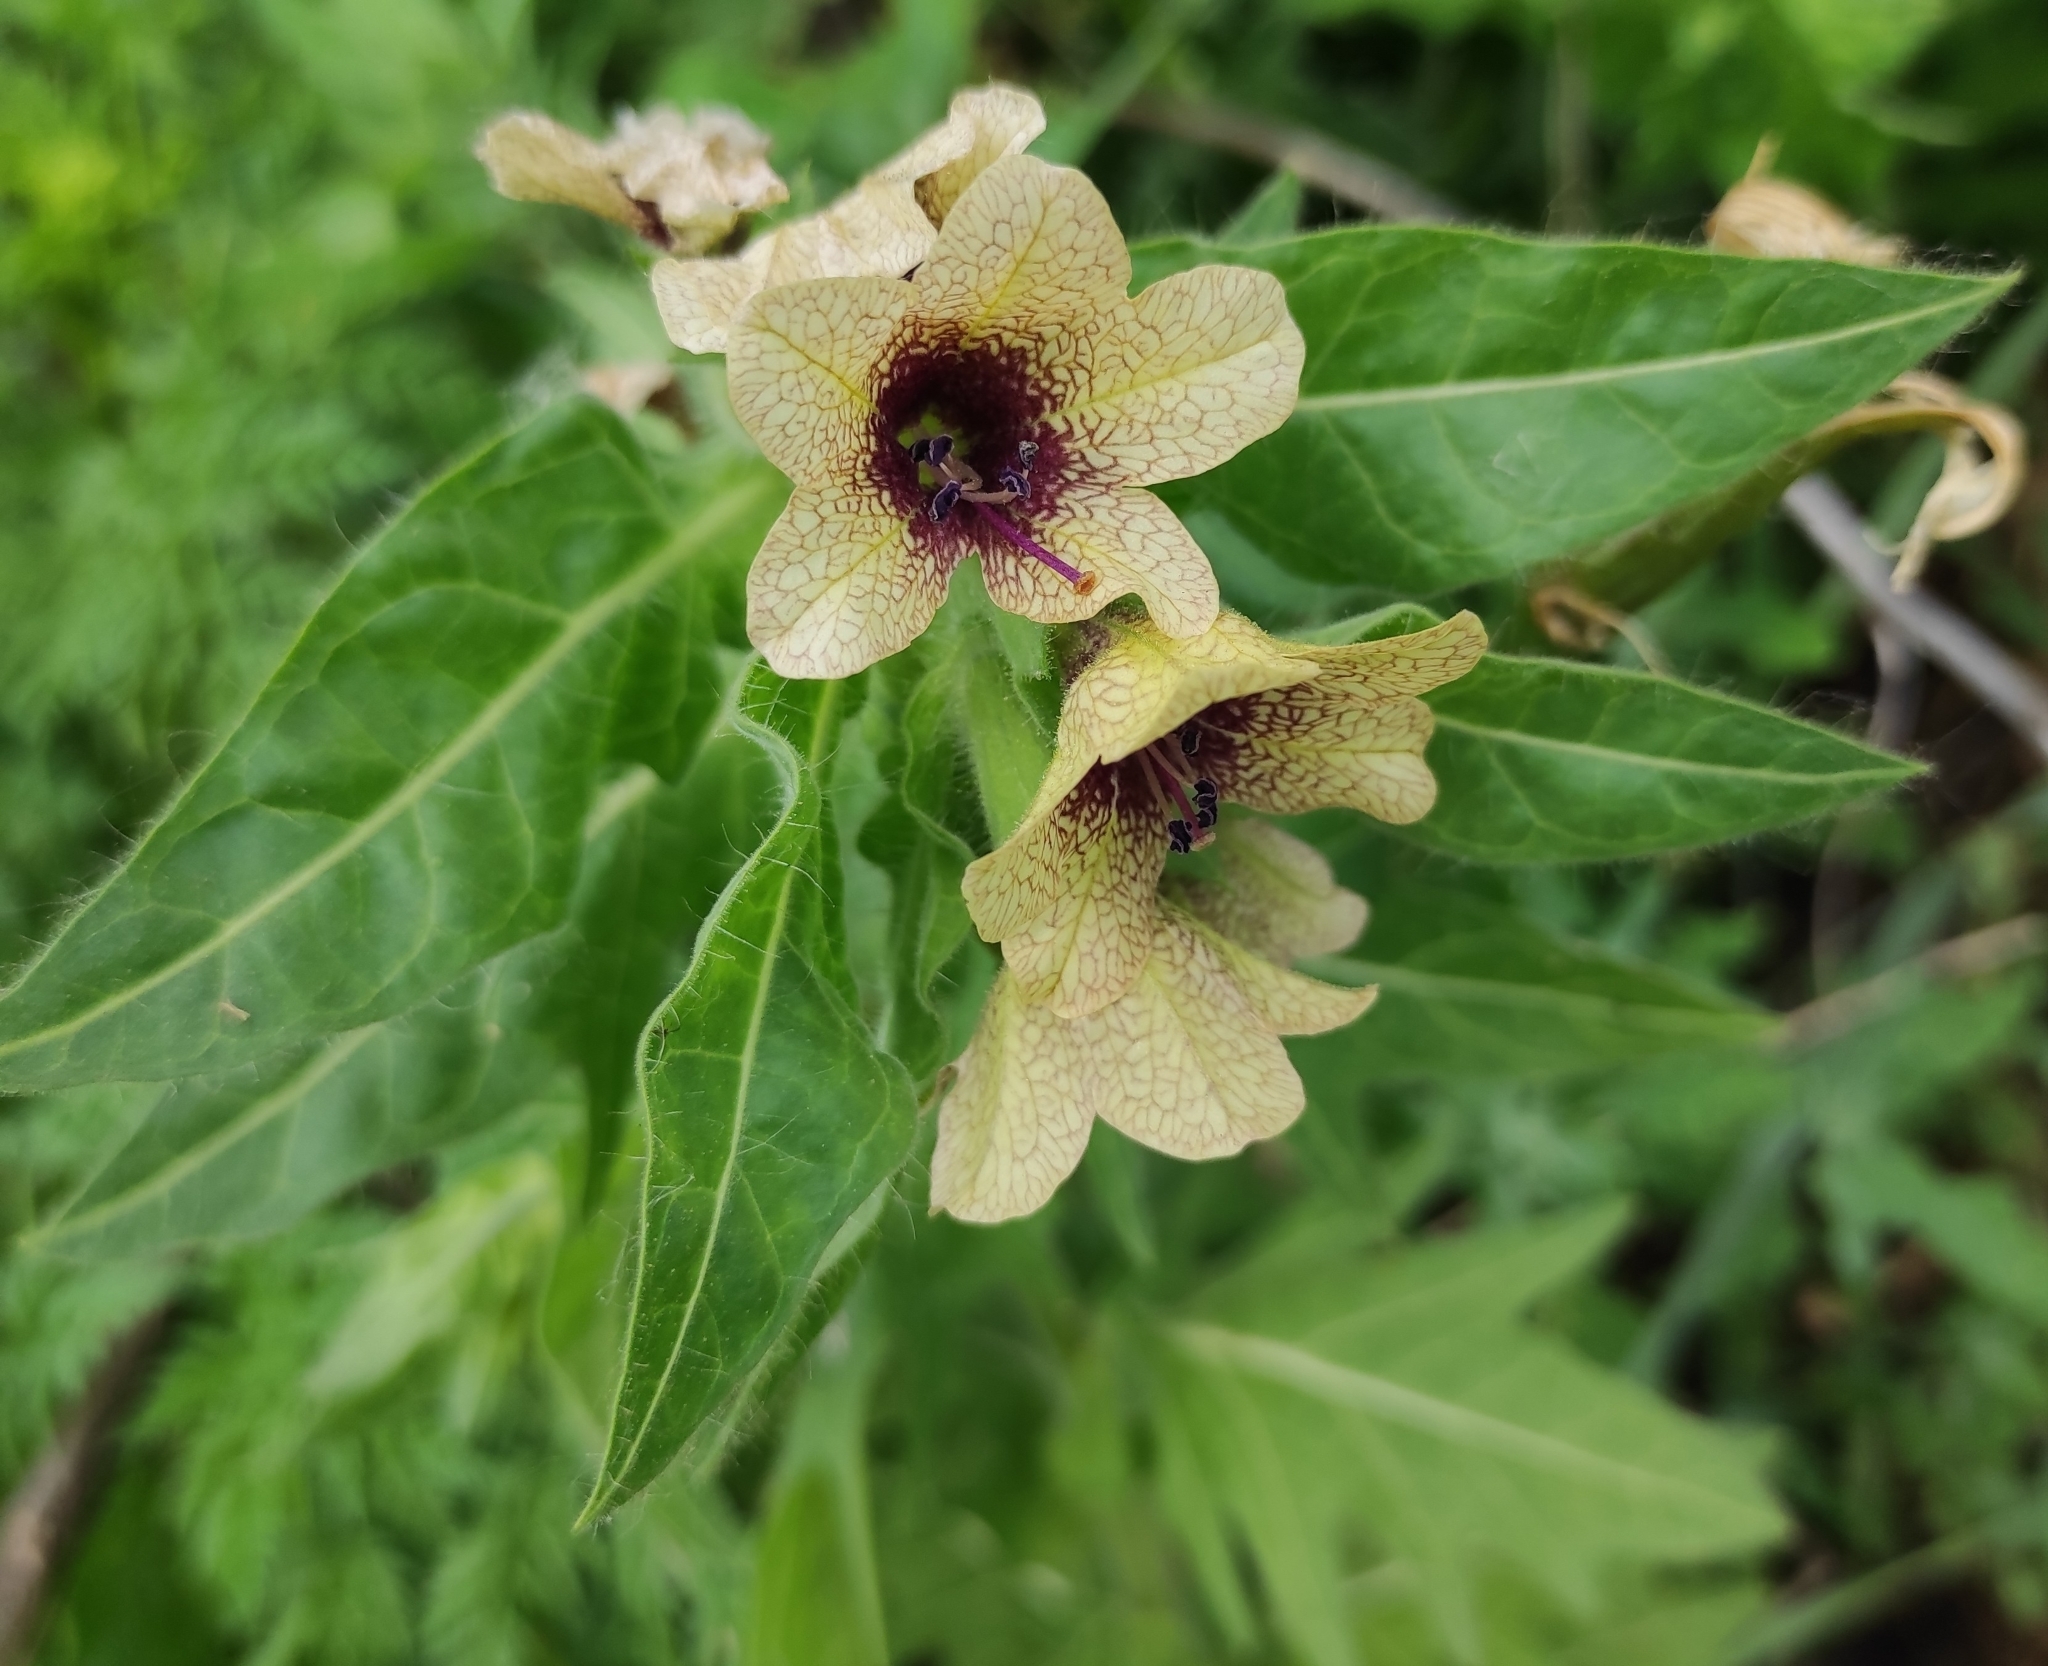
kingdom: Plantae
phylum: Tracheophyta
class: Magnoliopsida
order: Solanales
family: Solanaceae
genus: Hyoscyamus
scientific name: Hyoscyamus niger
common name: Henbane
